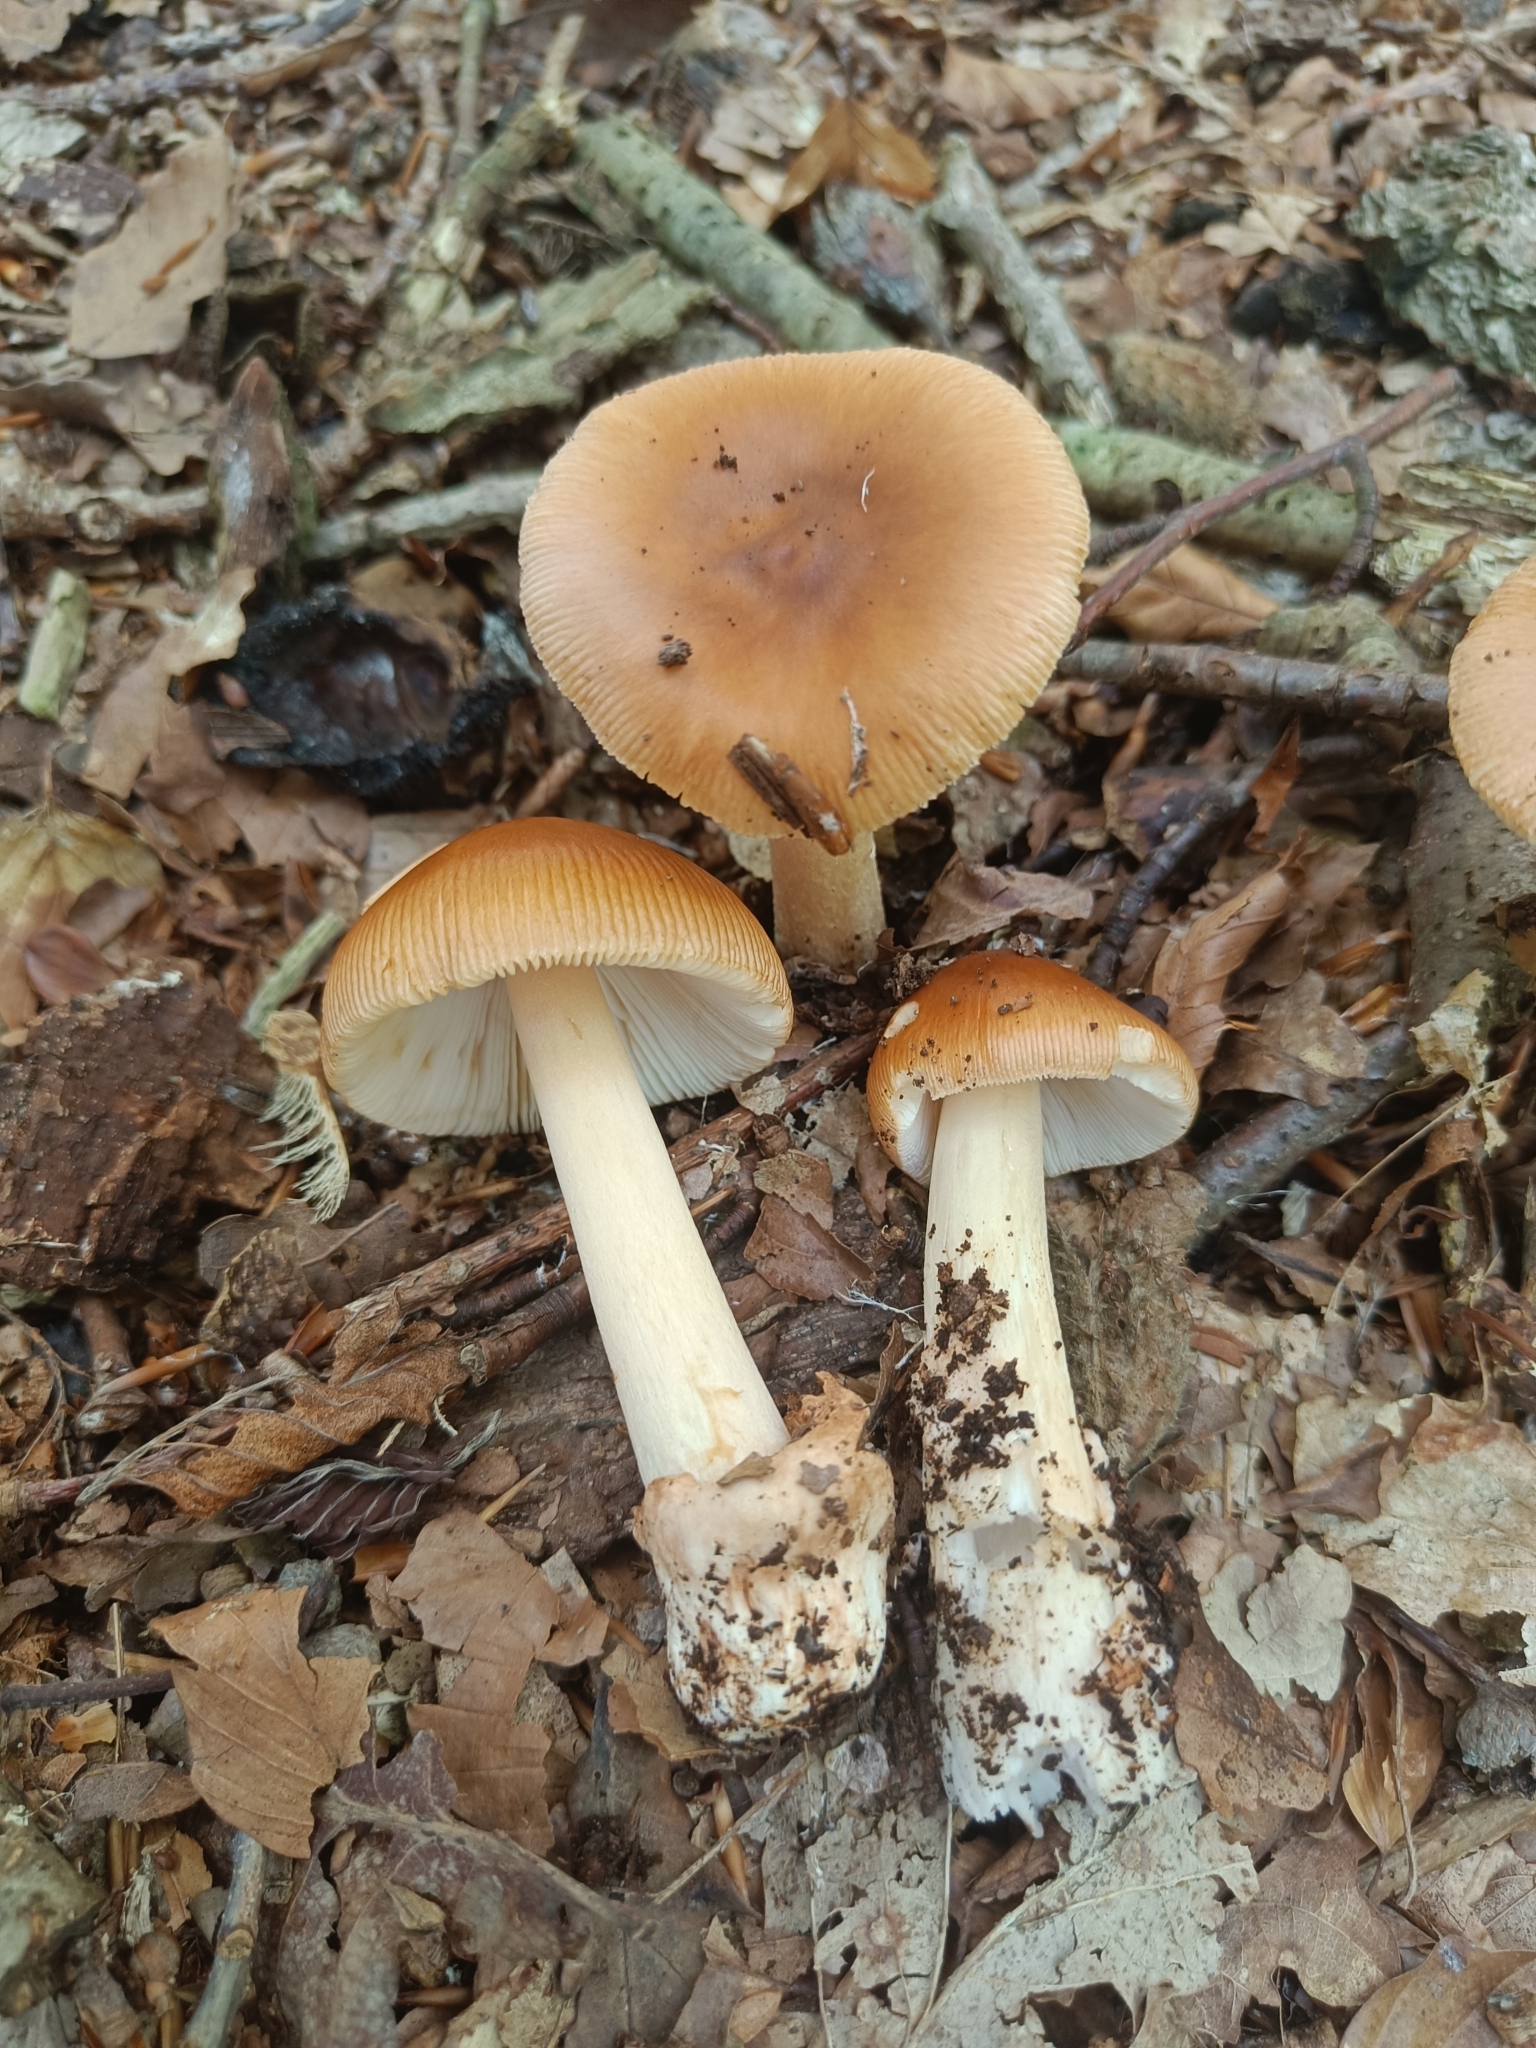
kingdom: Fungi
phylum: Basidiomycota
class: Agaricomycetes
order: Agaricales
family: Amanitaceae
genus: Amanita
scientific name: Amanita fulva
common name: Tawny grisette
